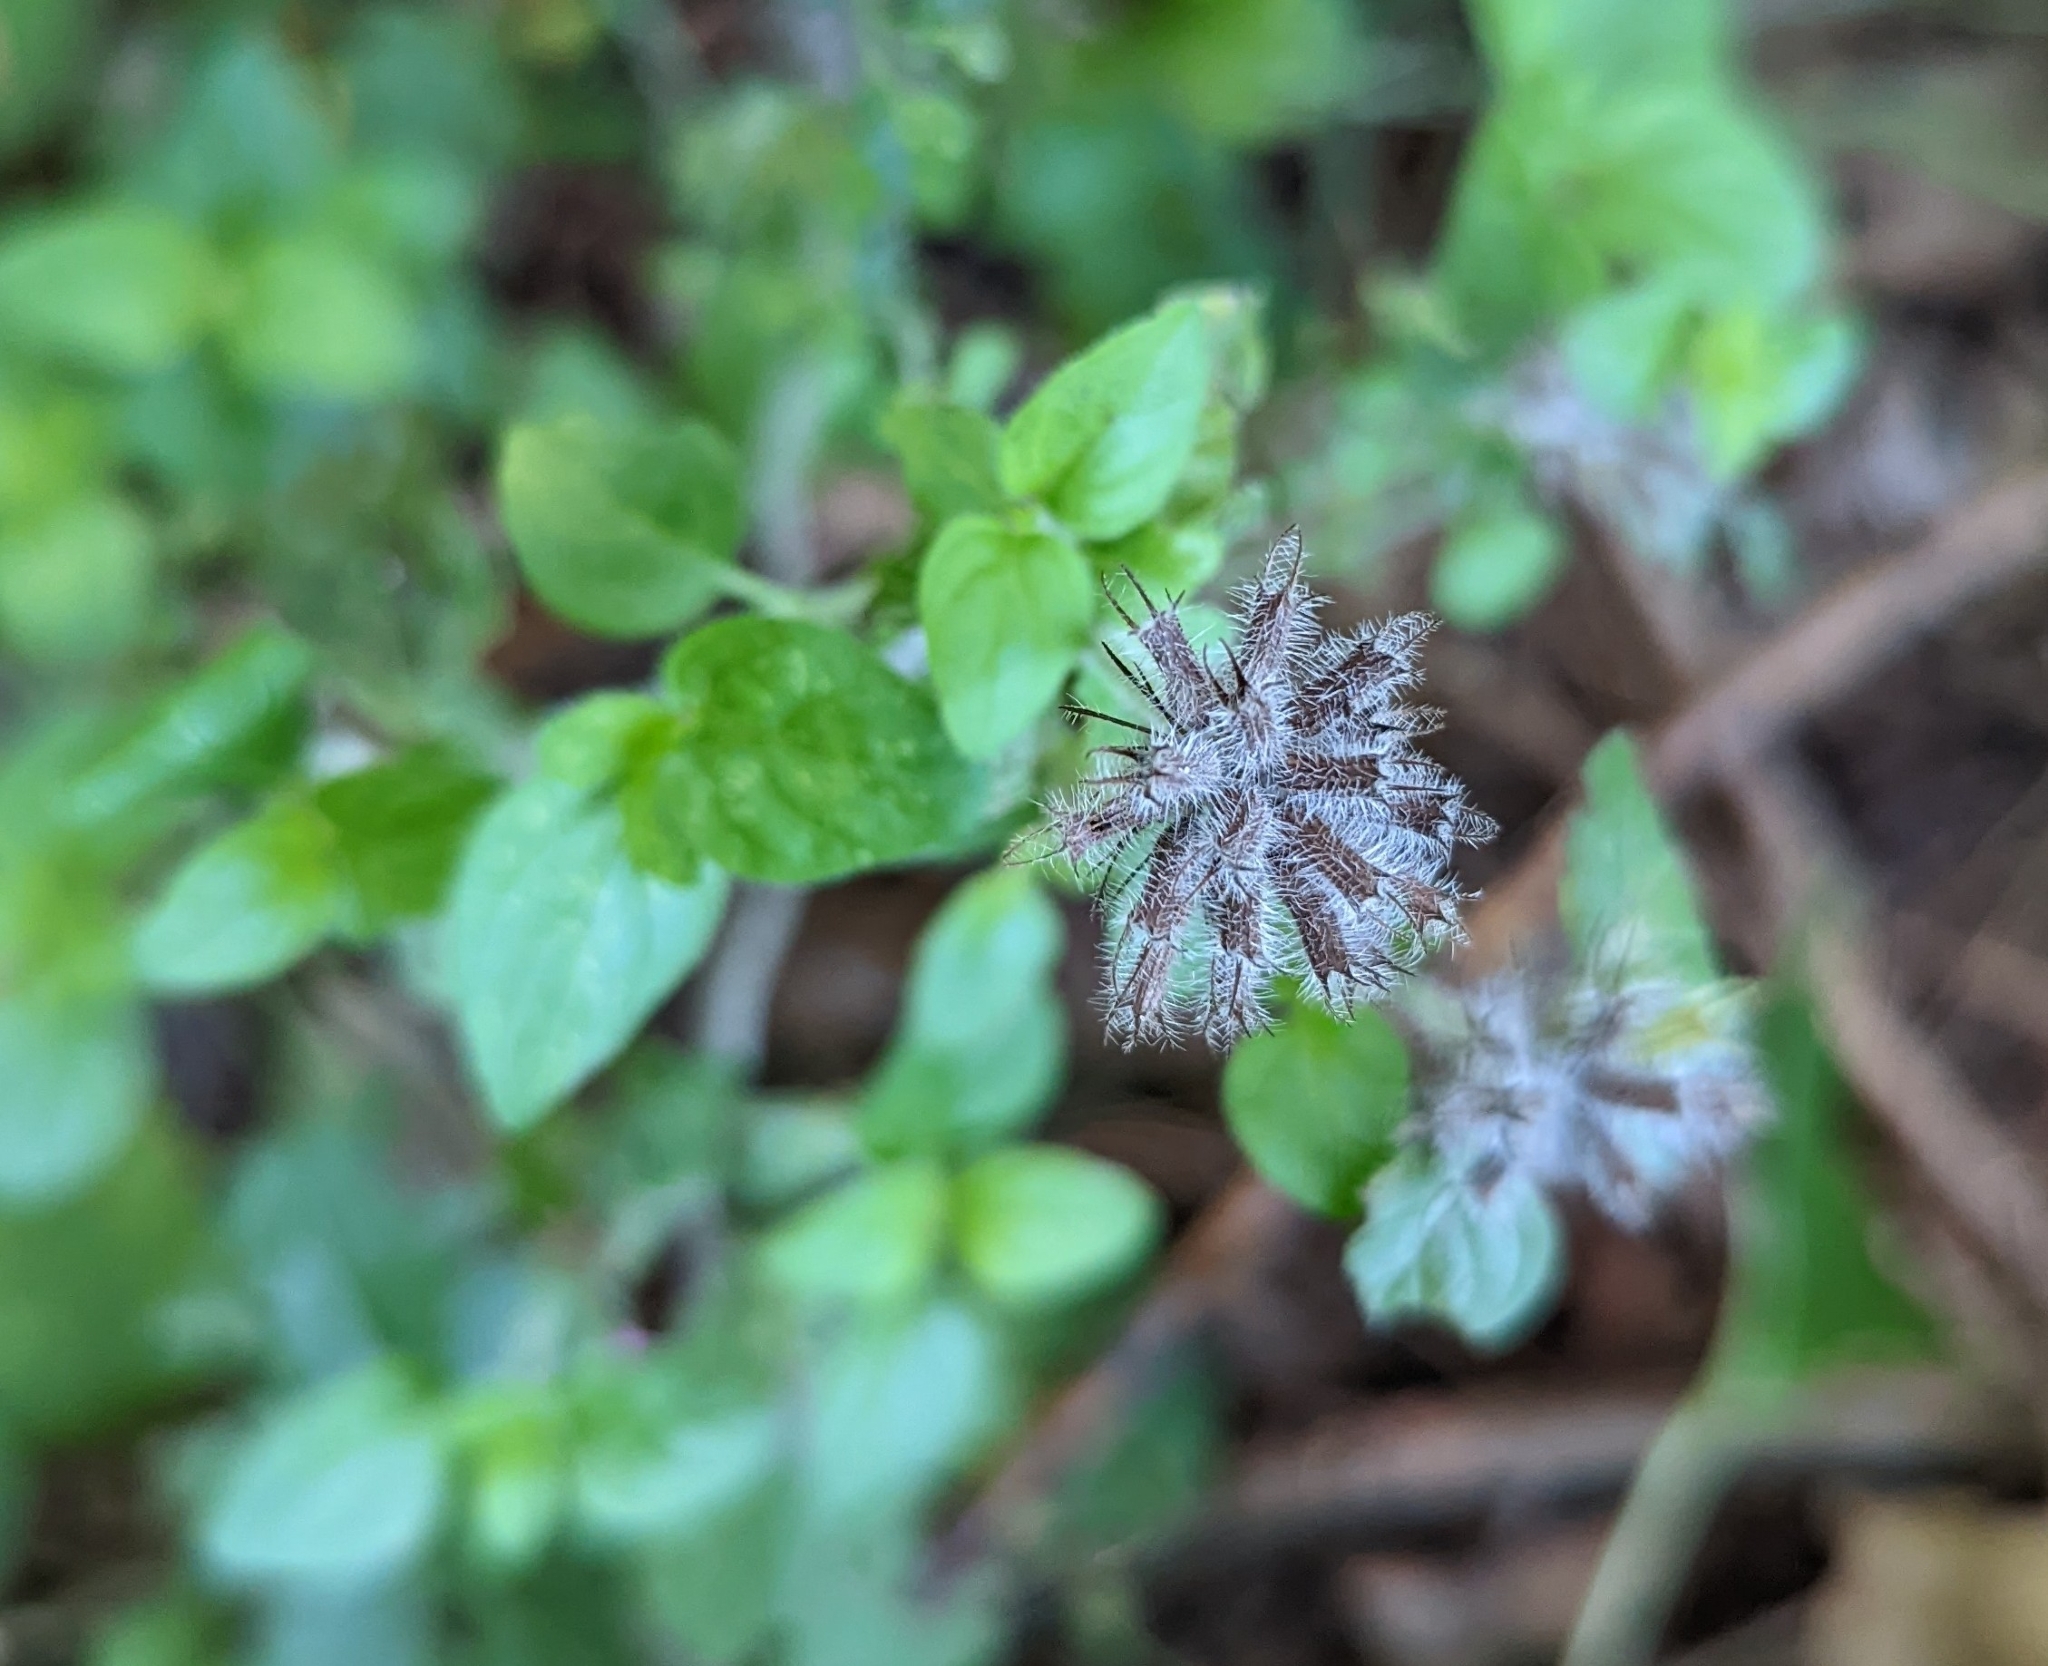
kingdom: Plantae
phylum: Tracheophyta
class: Magnoliopsida
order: Lamiales
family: Lamiaceae
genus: Clinopodium
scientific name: Clinopodium vulgare
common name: Wild basil
